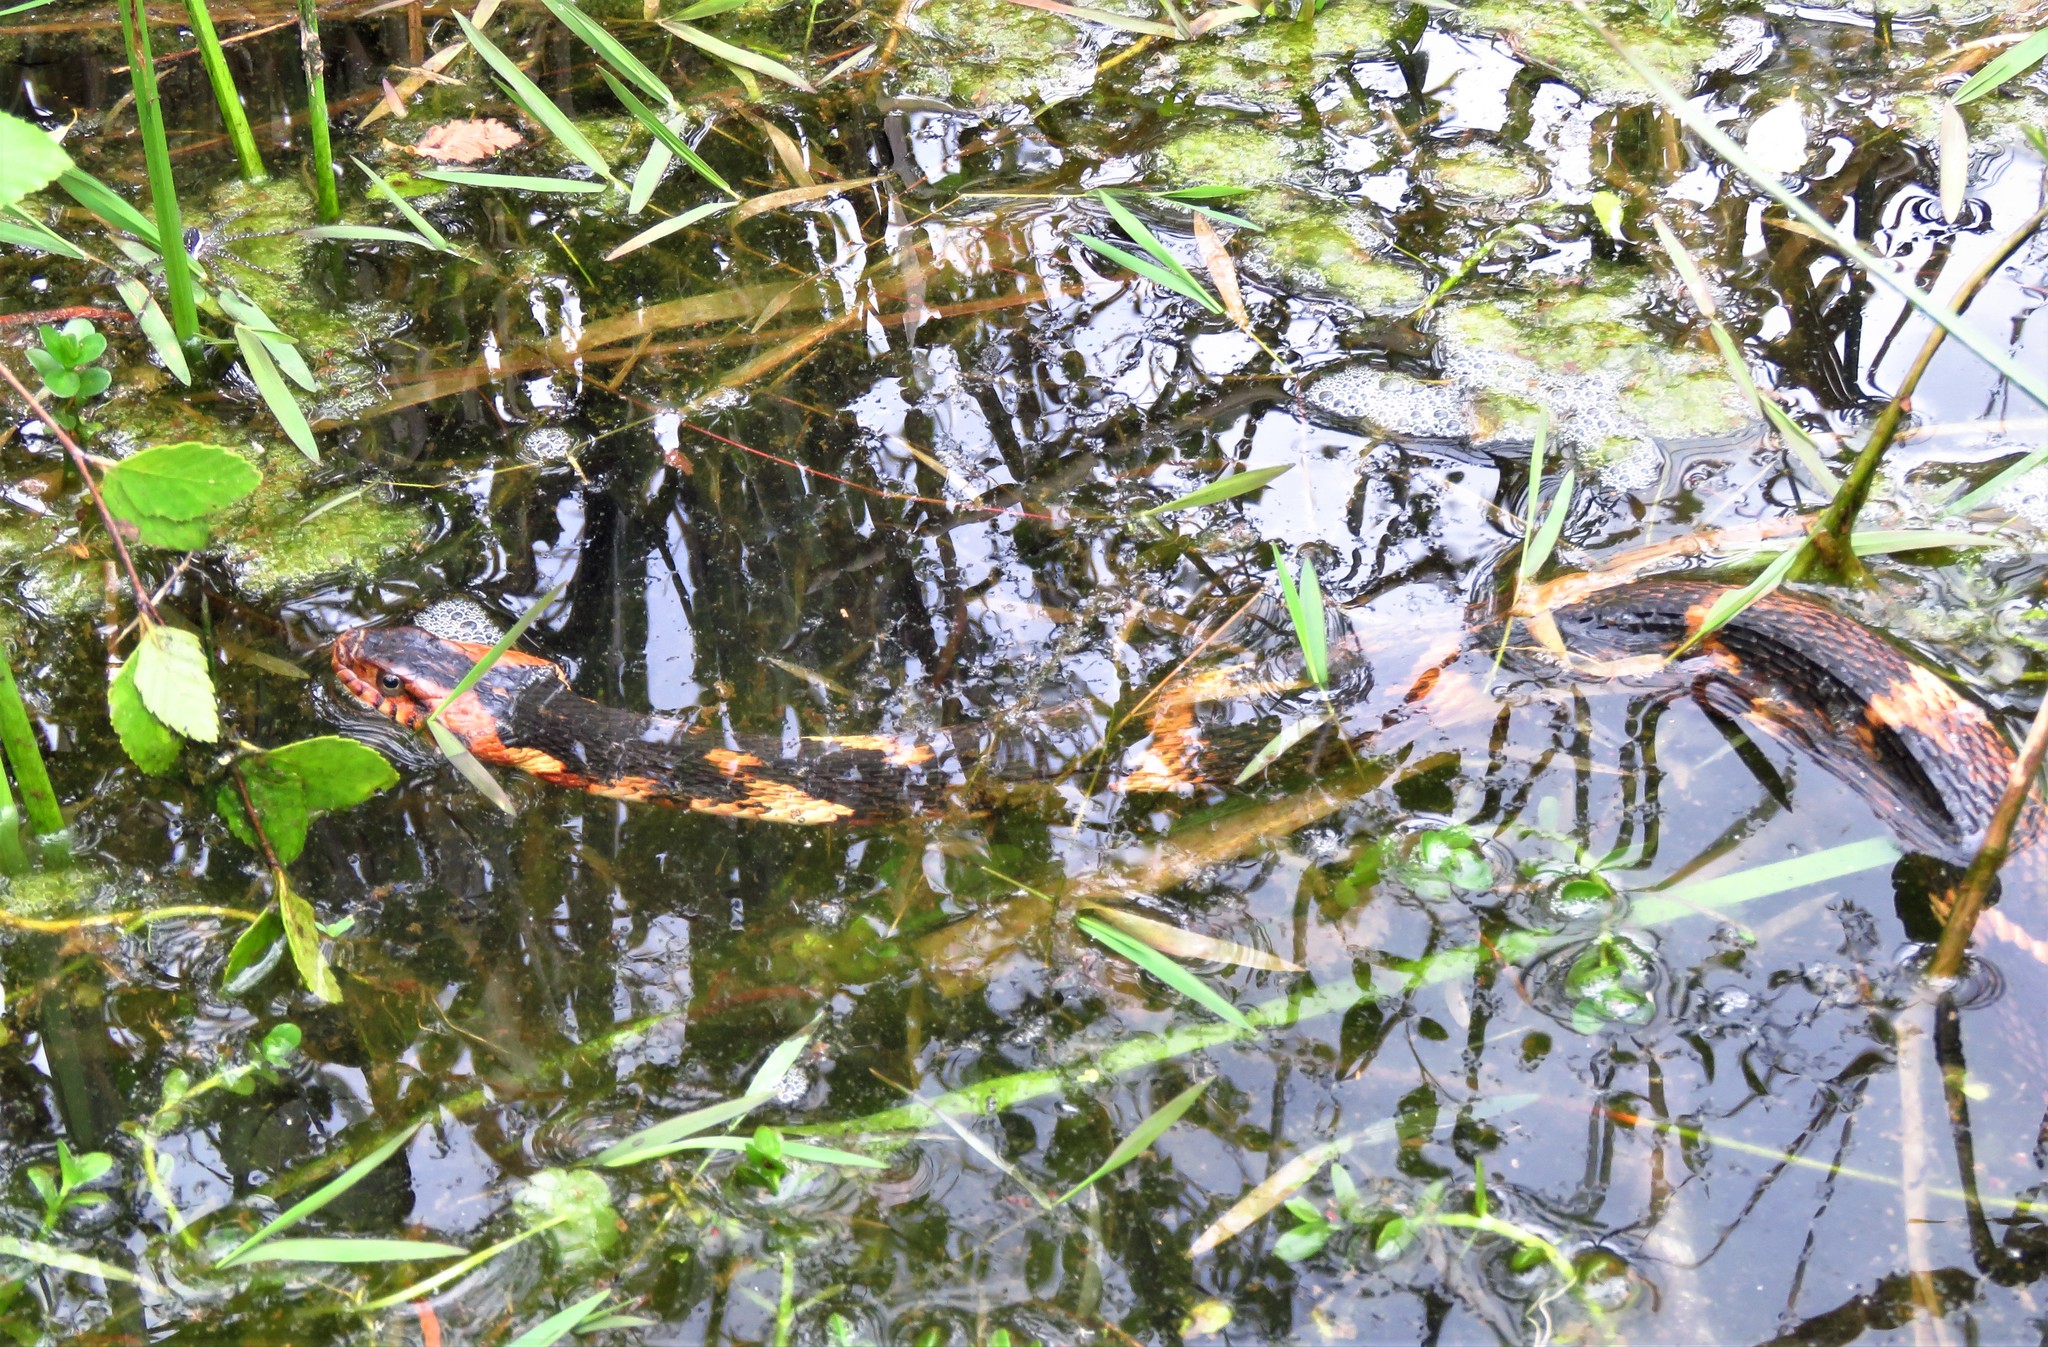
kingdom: Animalia
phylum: Chordata
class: Squamata
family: Colubridae
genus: Nerodia
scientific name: Nerodia fasciata
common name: Southern water snake
